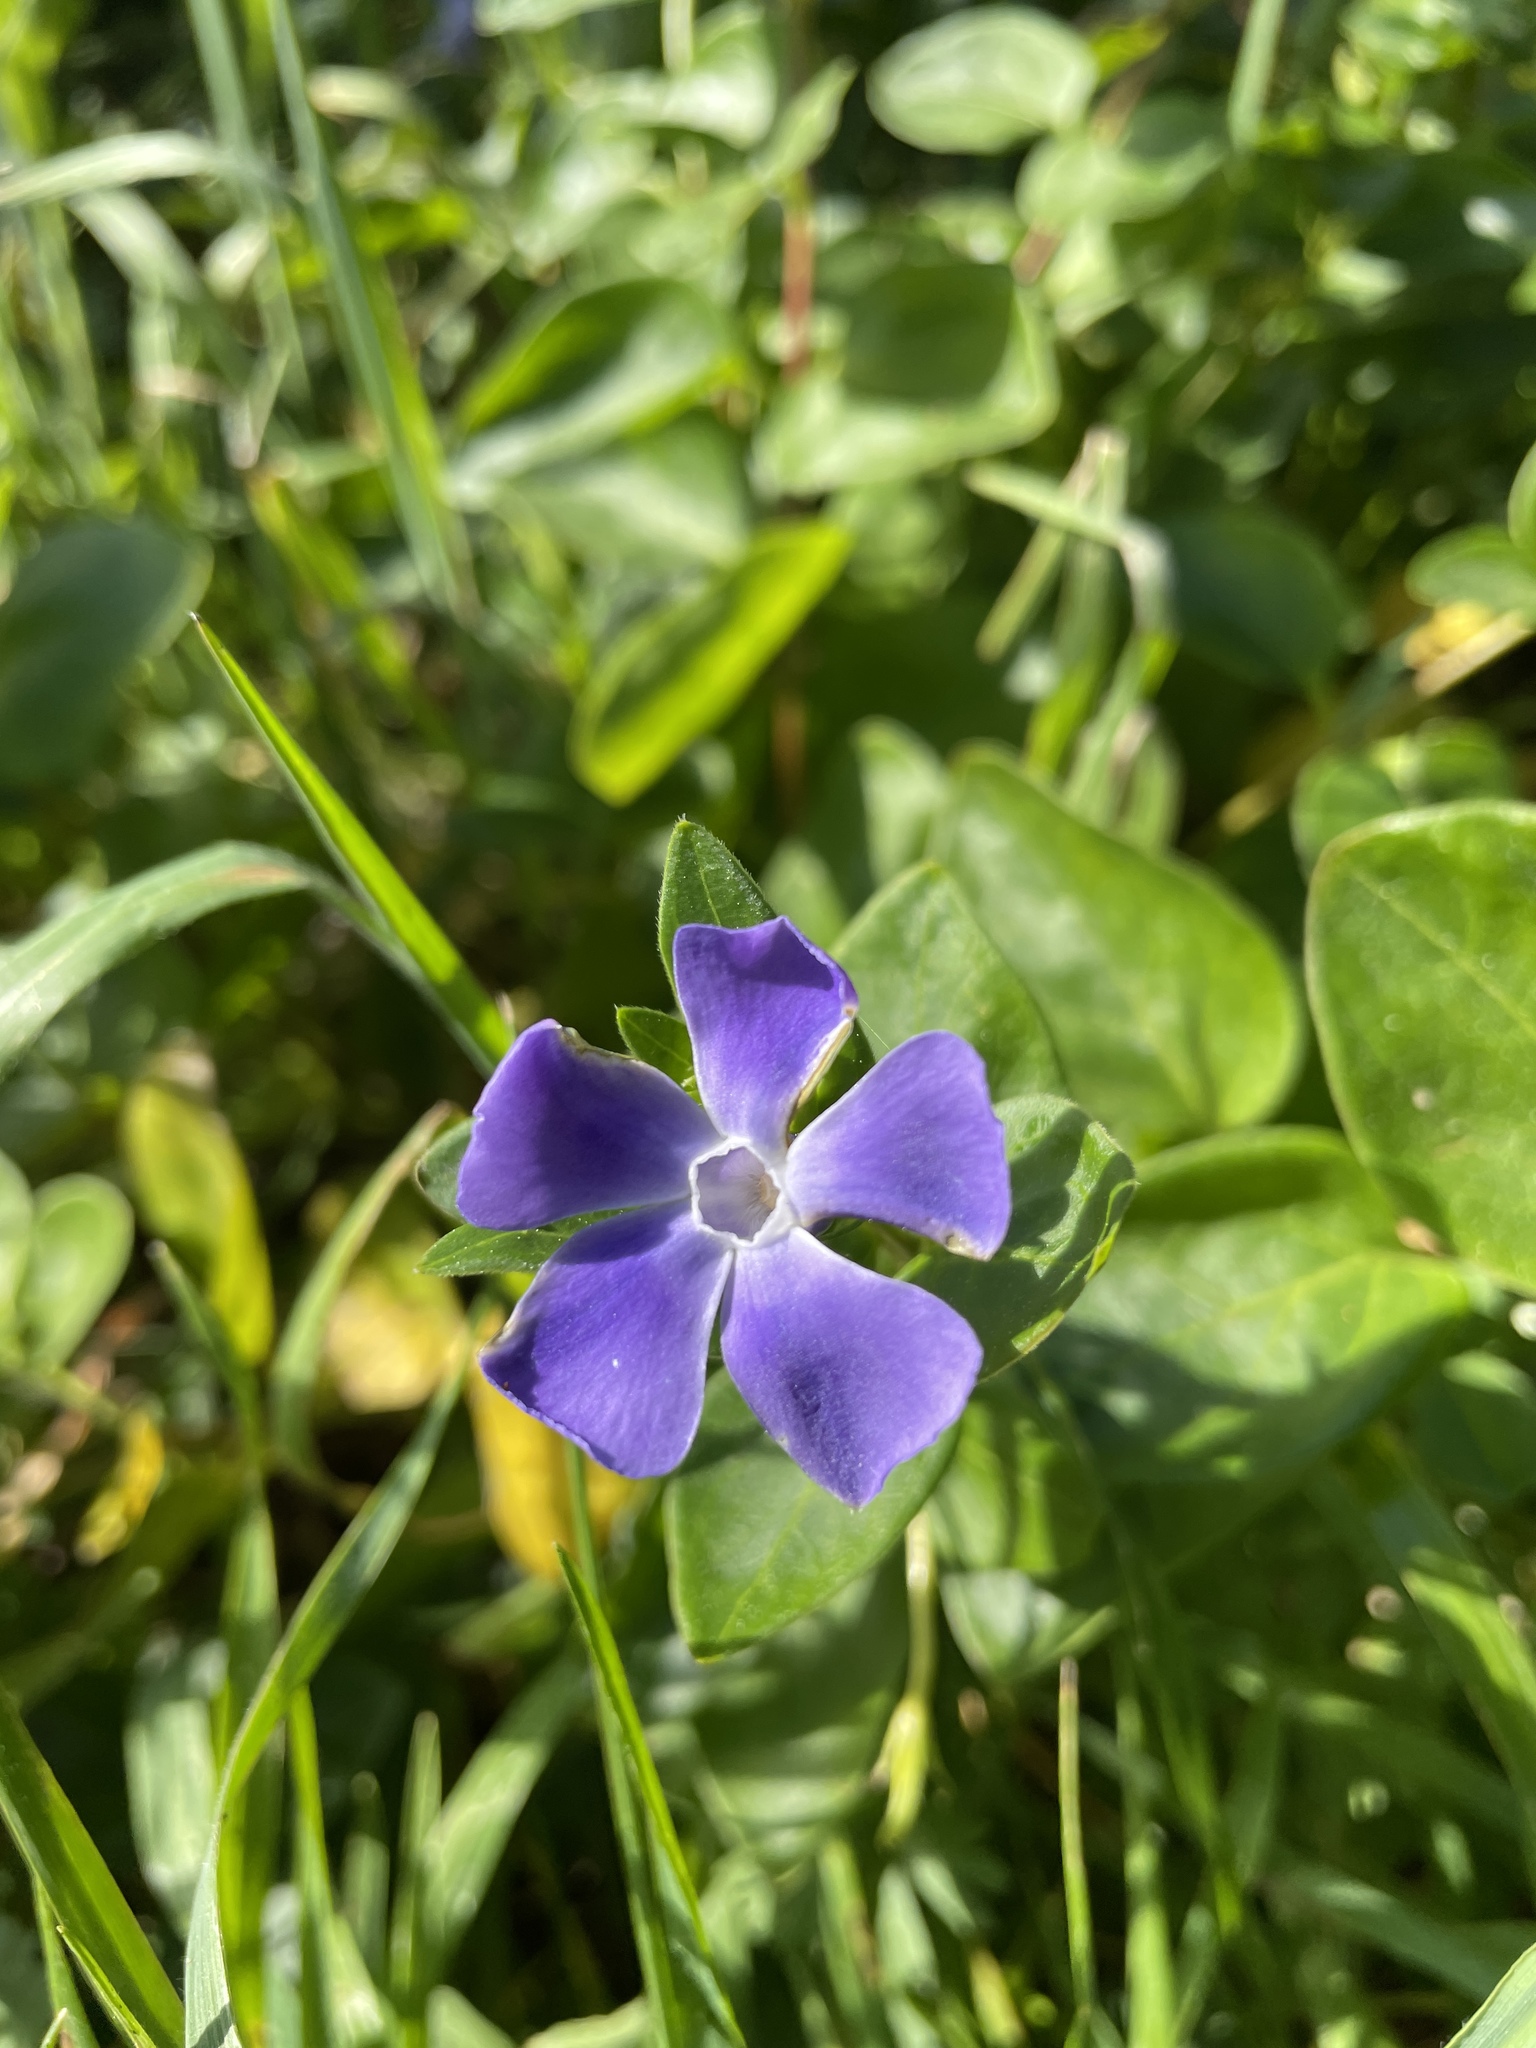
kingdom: Plantae
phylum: Tracheophyta
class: Magnoliopsida
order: Gentianales
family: Apocynaceae
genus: Vinca
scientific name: Vinca major
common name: Greater periwinkle
